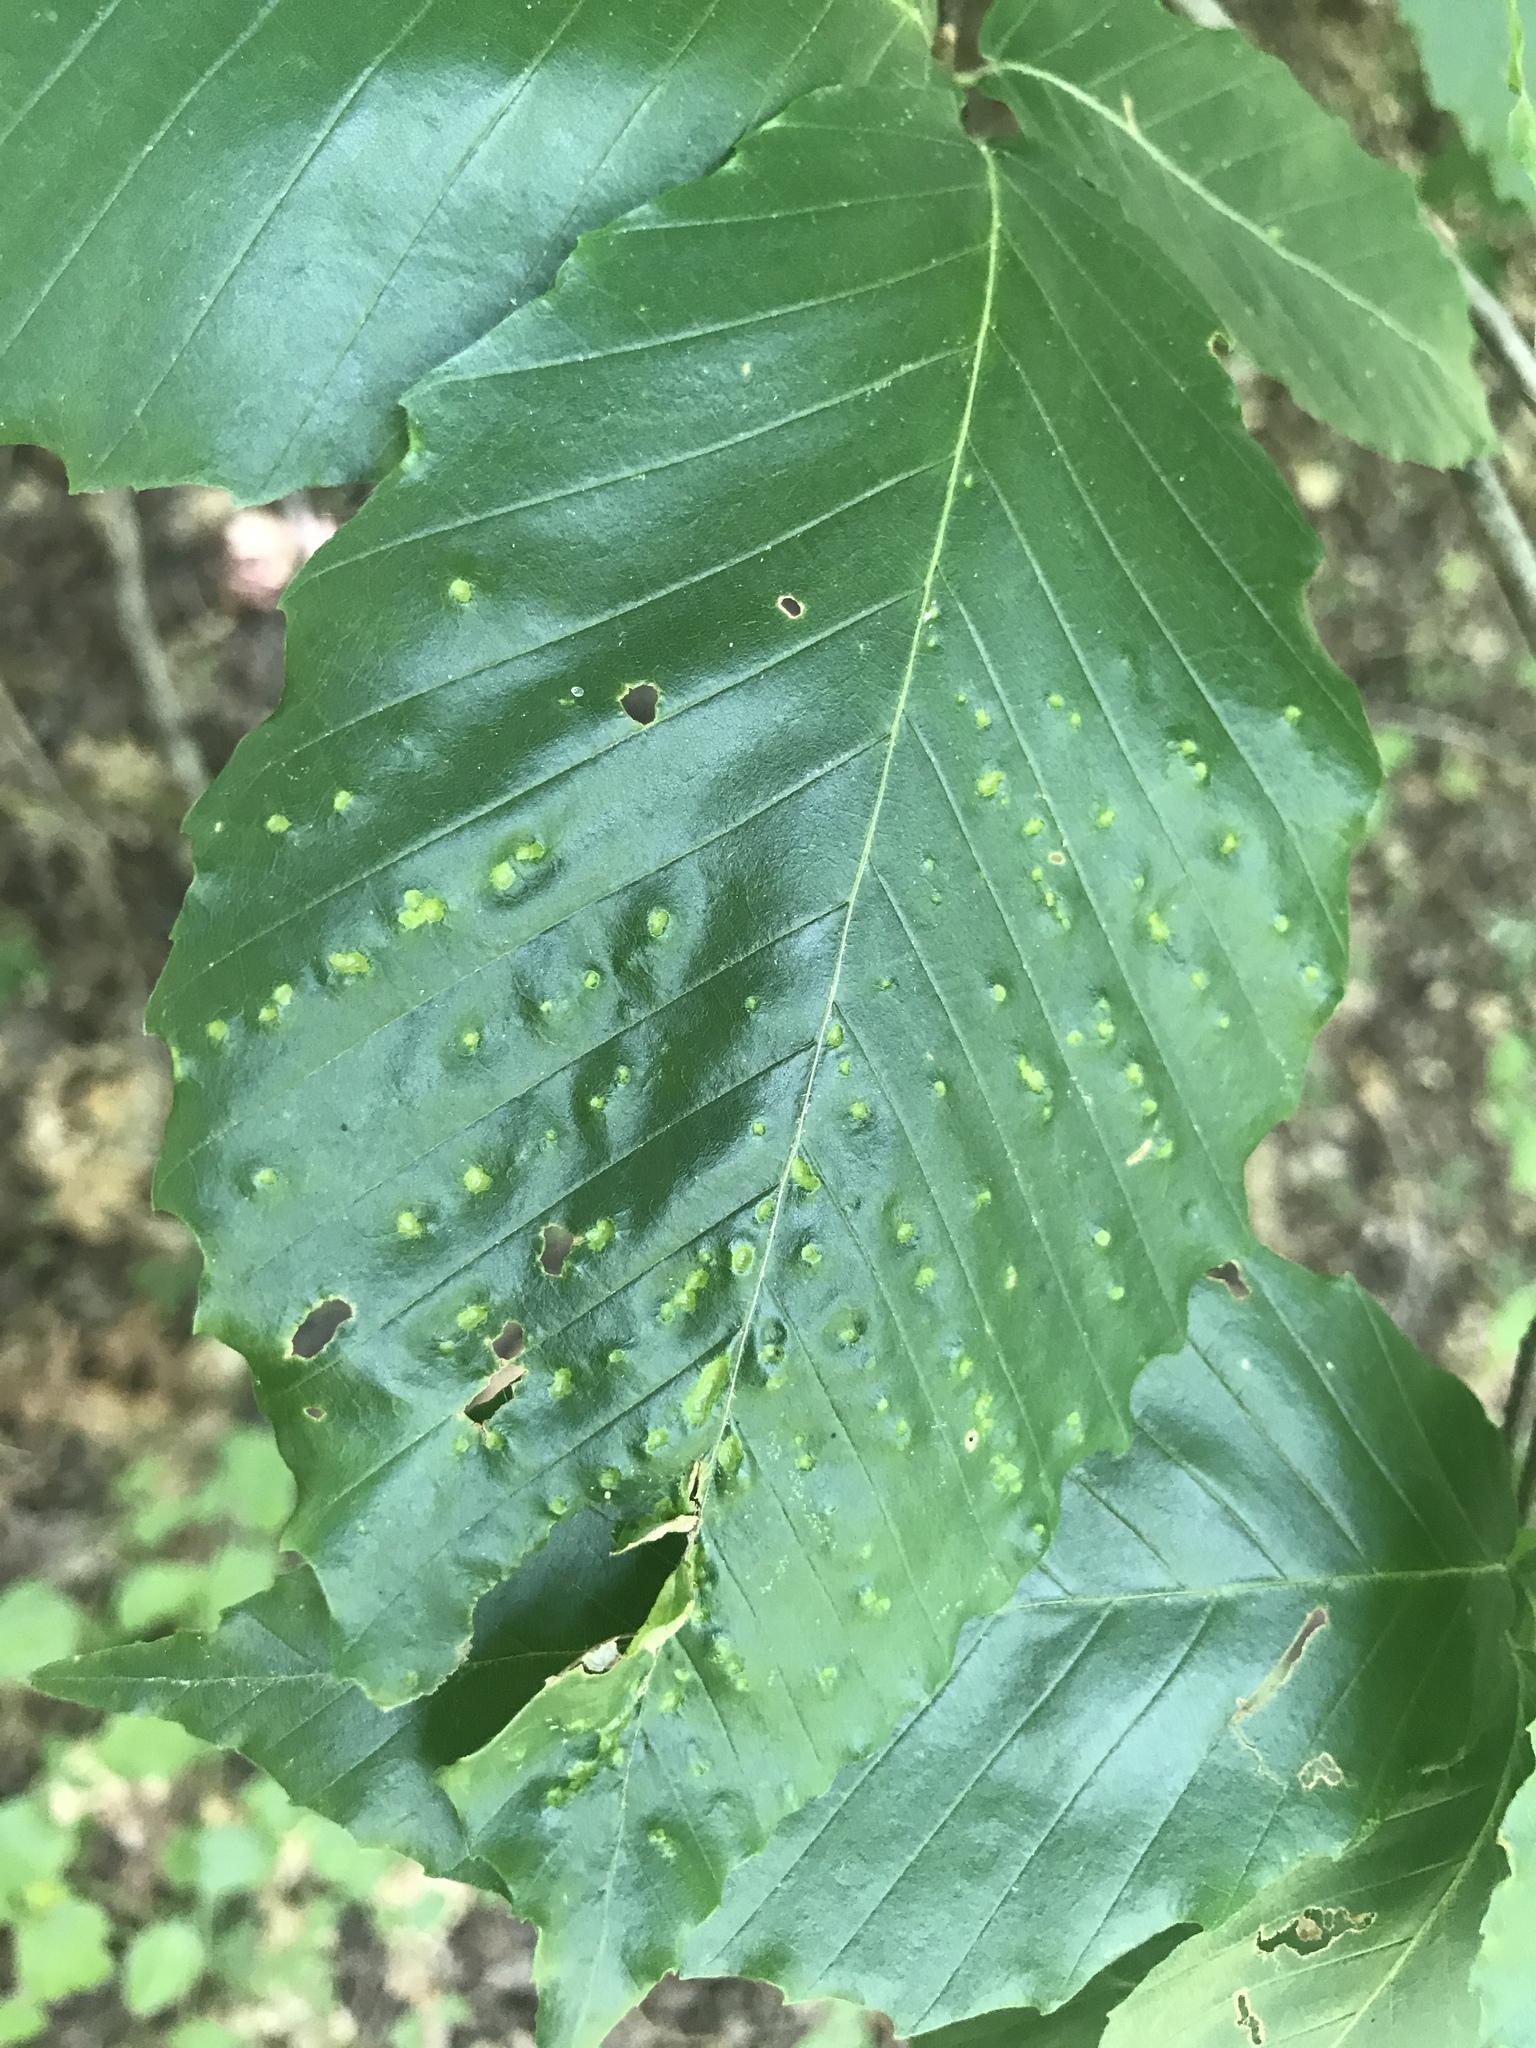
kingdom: Animalia
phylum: Arthropoda
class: Arachnida
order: Trombidiformes
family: Eriophyidae
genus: Acalitus
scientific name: Acalitus
